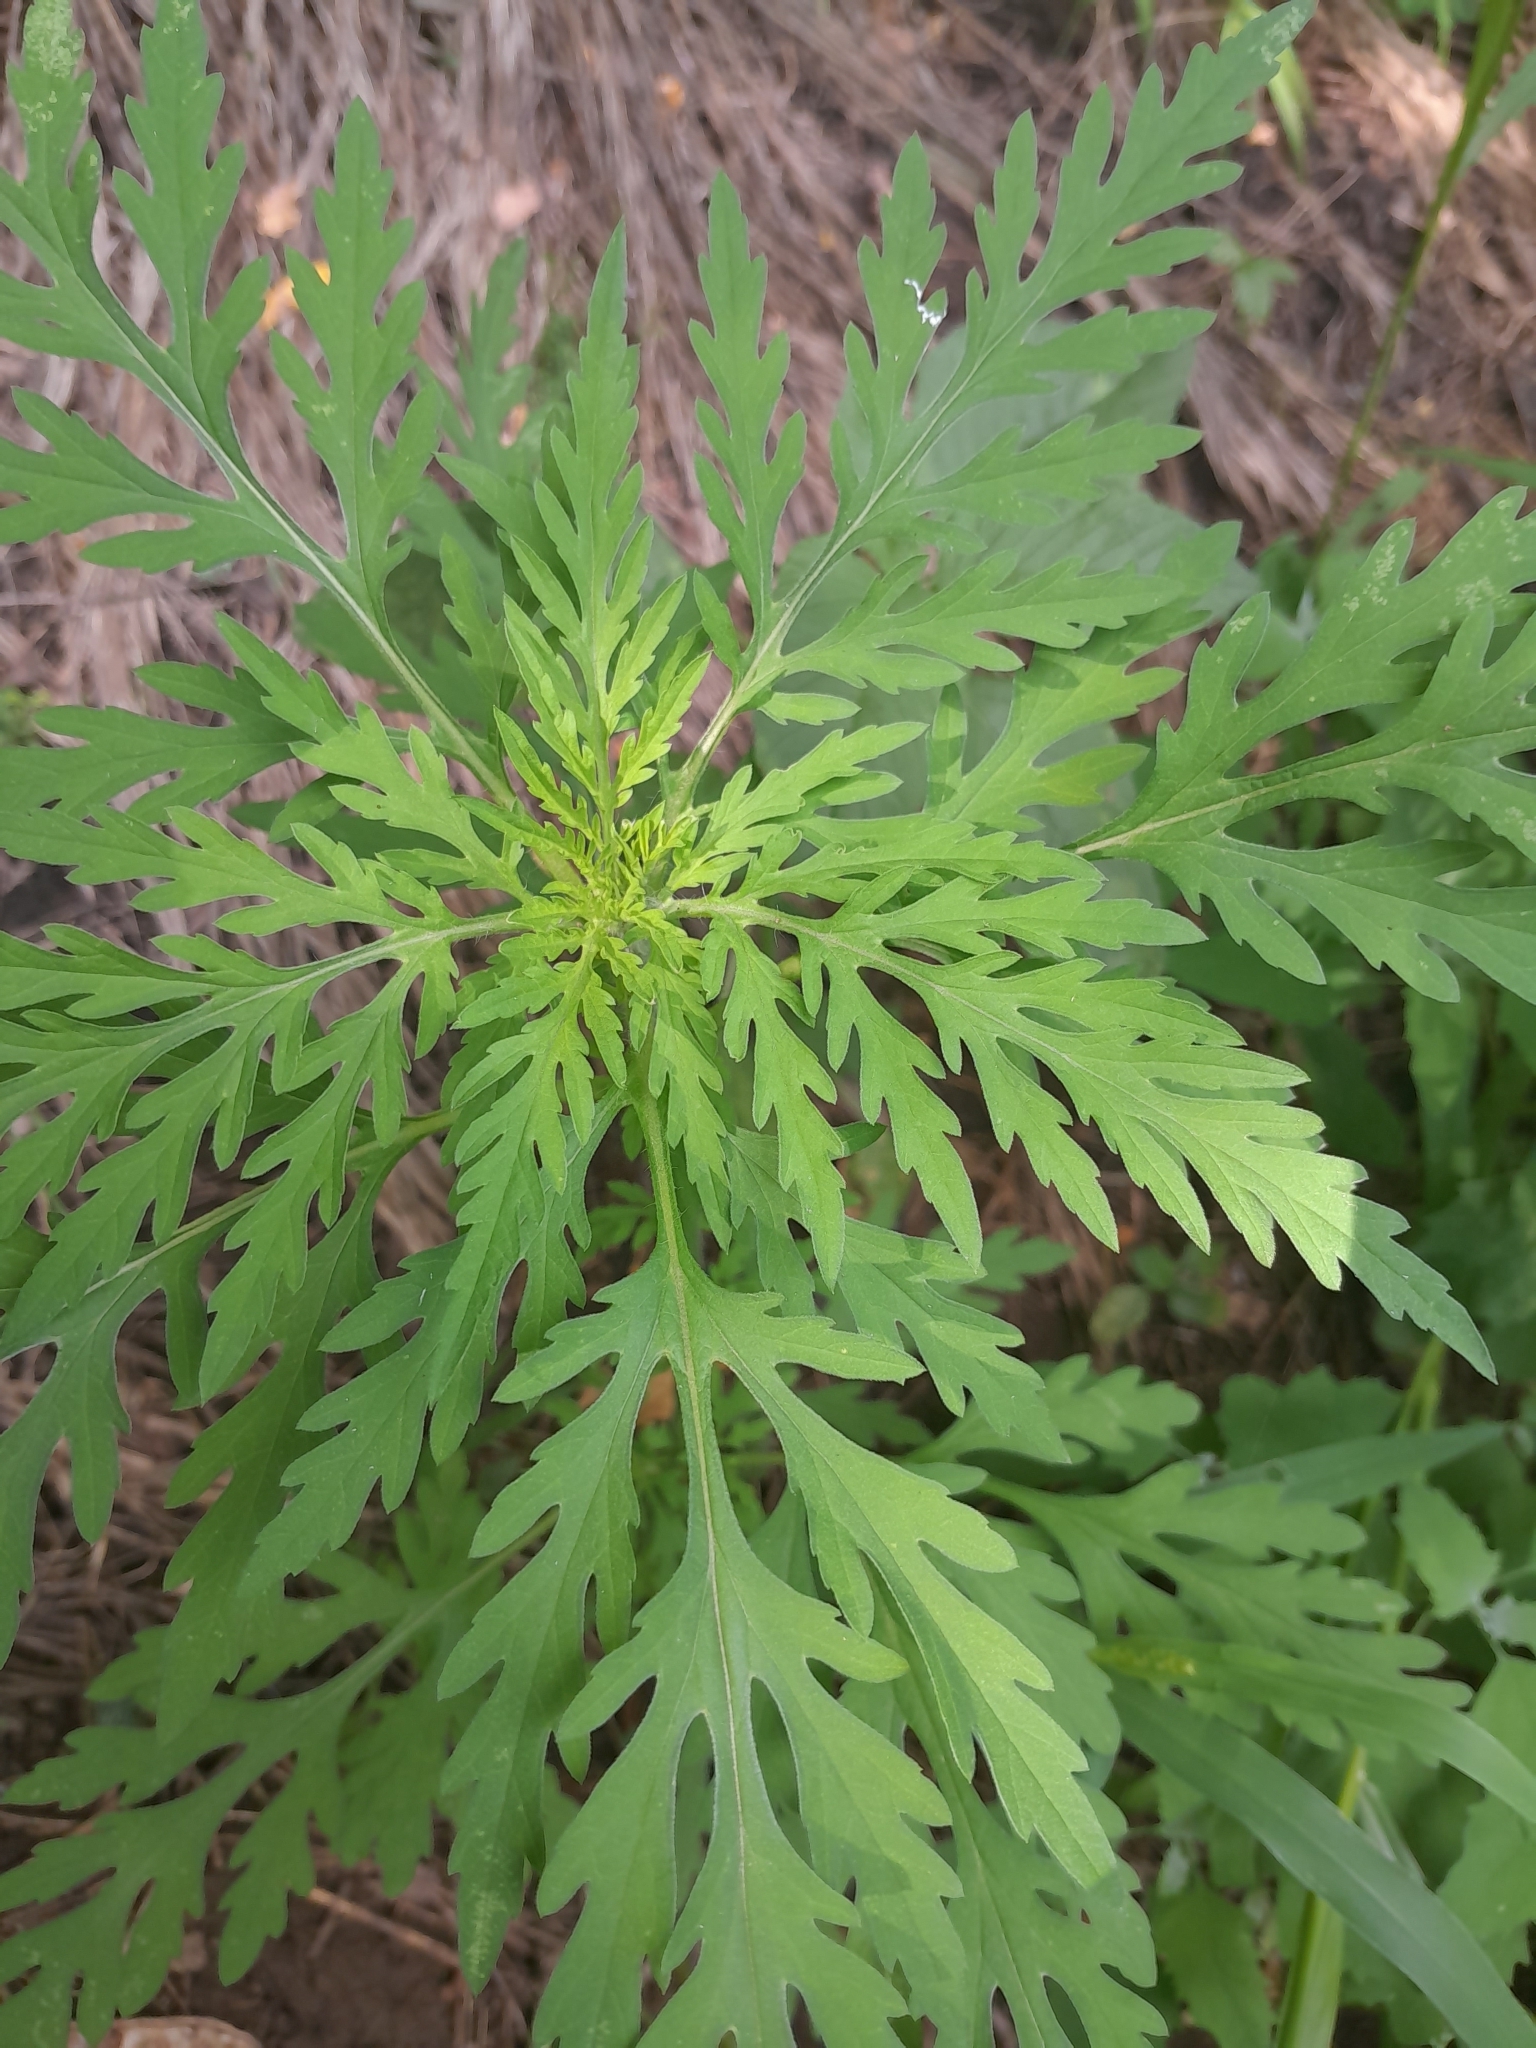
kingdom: Plantae
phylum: Tracheophyta
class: Magnoliopsida
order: Asterales
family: Asteraceae
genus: Ambrosia
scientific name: Ambrosia artemisiifolia
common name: Annual ragweed
